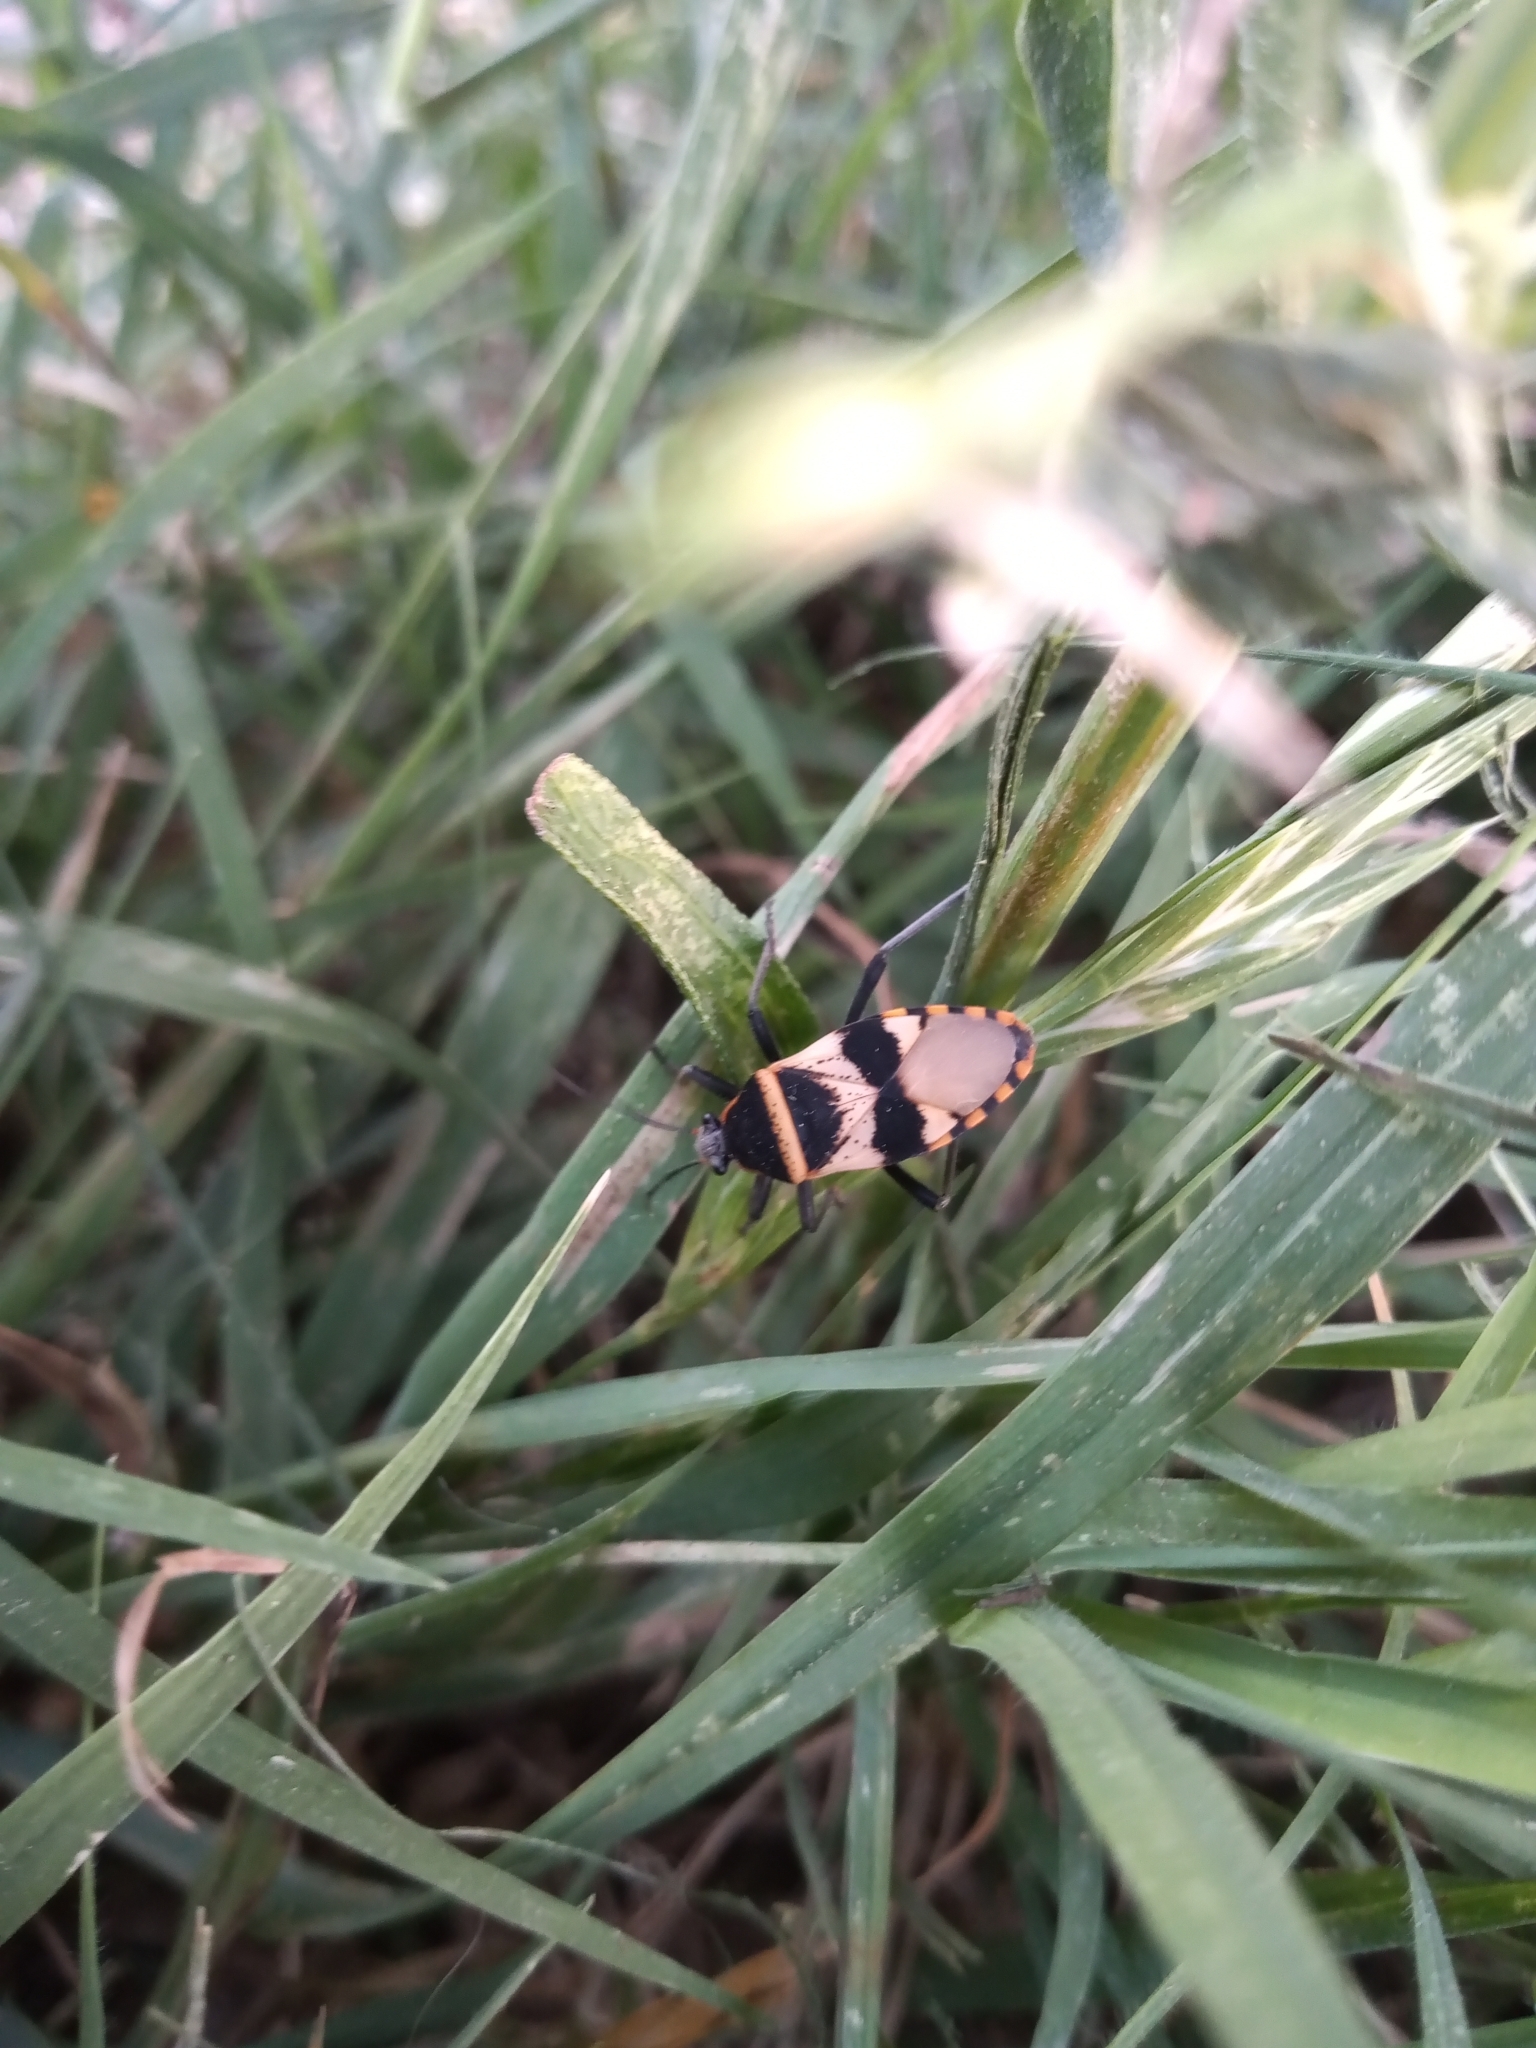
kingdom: Animalia
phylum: Arthropoda
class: Insecta
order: Hemiptera
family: Largidae
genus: Largus
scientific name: Largus fasciatus
